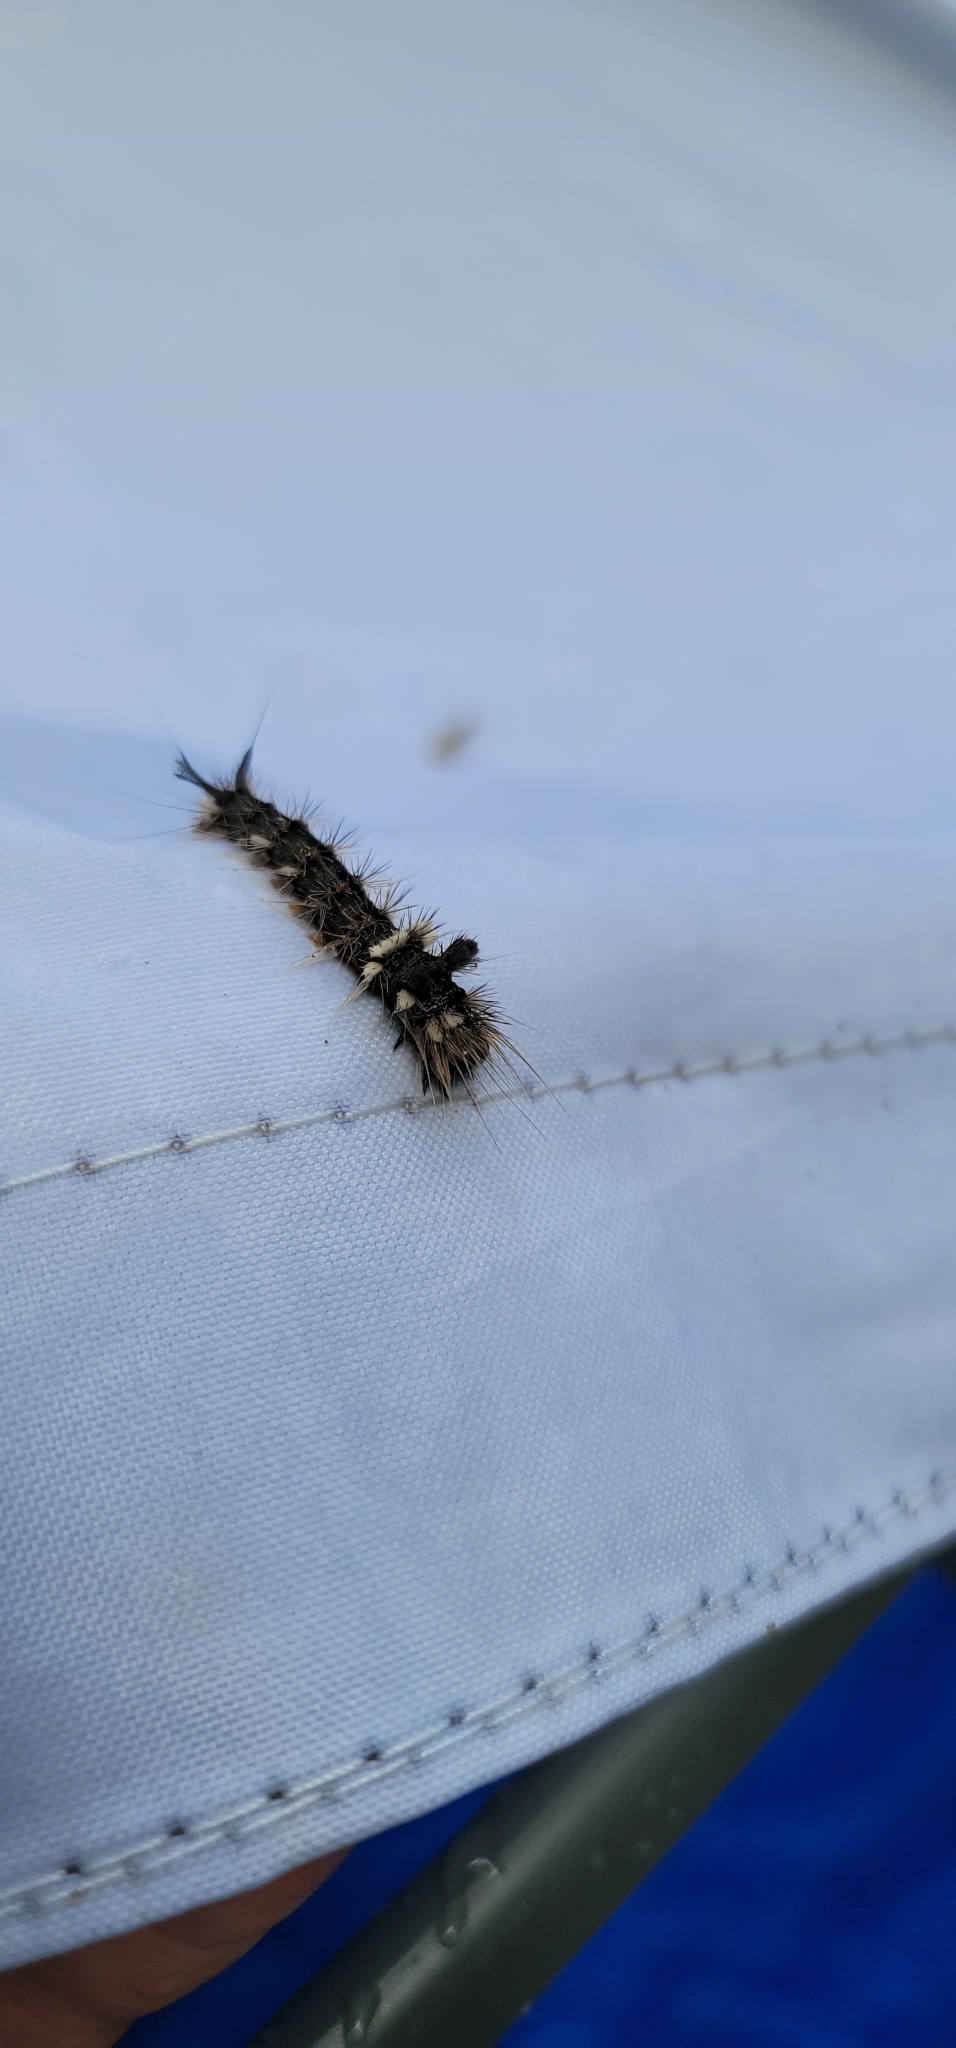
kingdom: Animalia
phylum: Arthropoda
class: Insecta
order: Lepidoptera
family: Noctuidae
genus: Acronicta
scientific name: Acronicta impleta
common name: Powdered dagger
